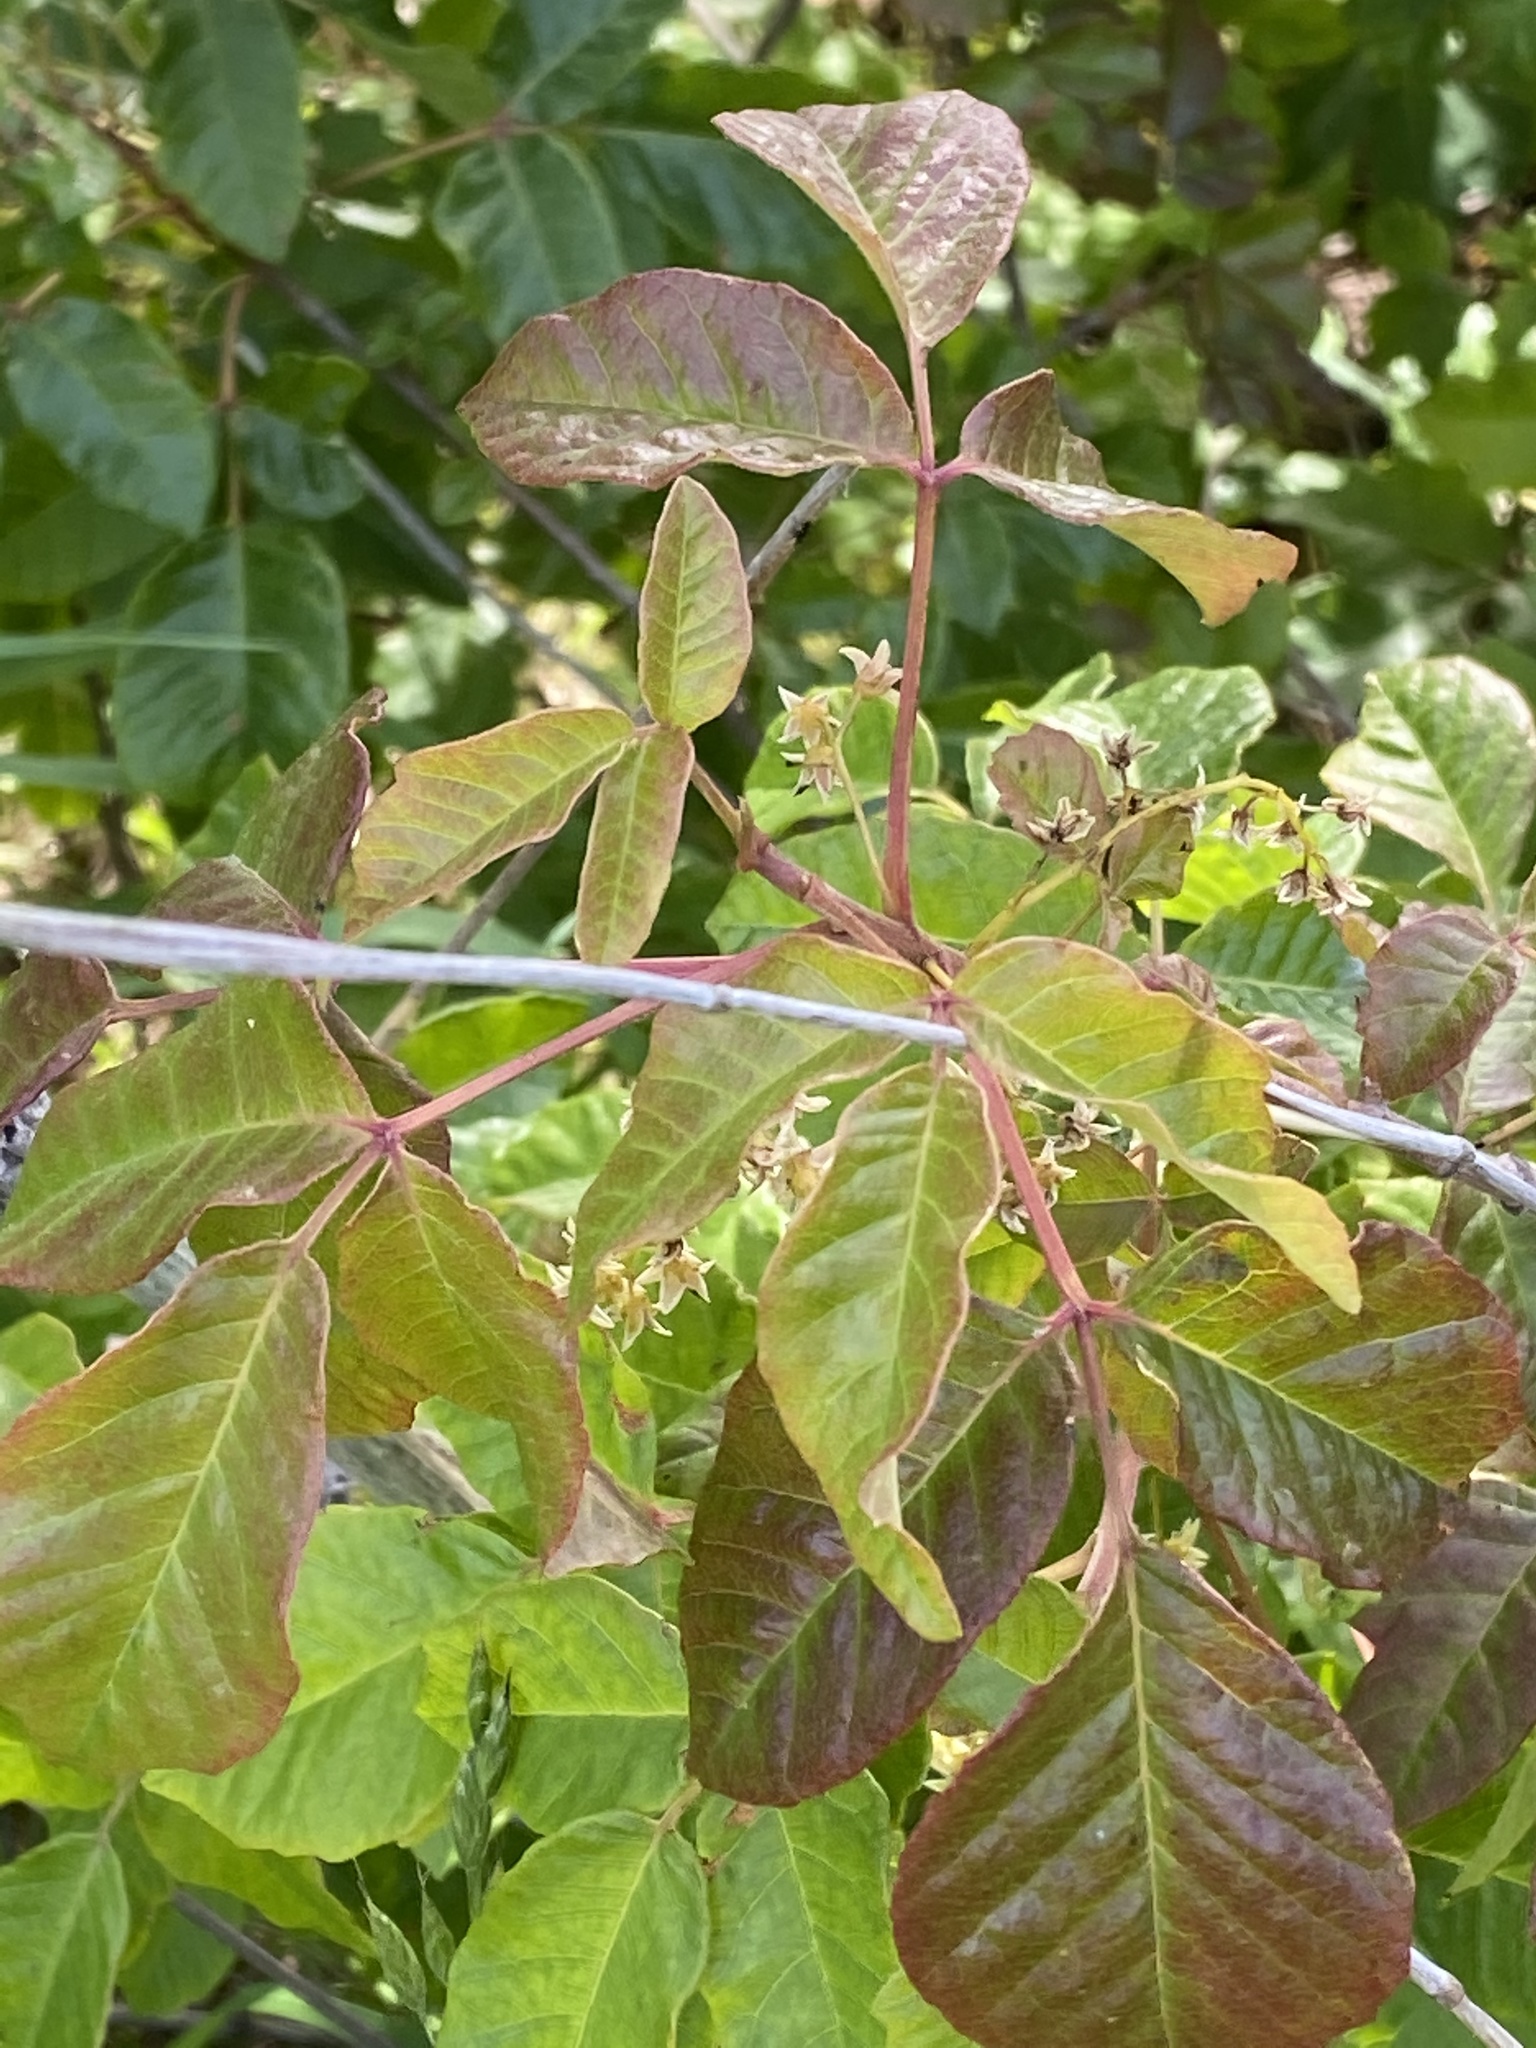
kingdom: Plantae
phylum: Tracheophyta
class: Magnoliopsida
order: Sapindales
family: Anacardiaceae
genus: Toxicodendron
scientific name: Toxicodendron diversilobum
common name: Pacific poison-oak
